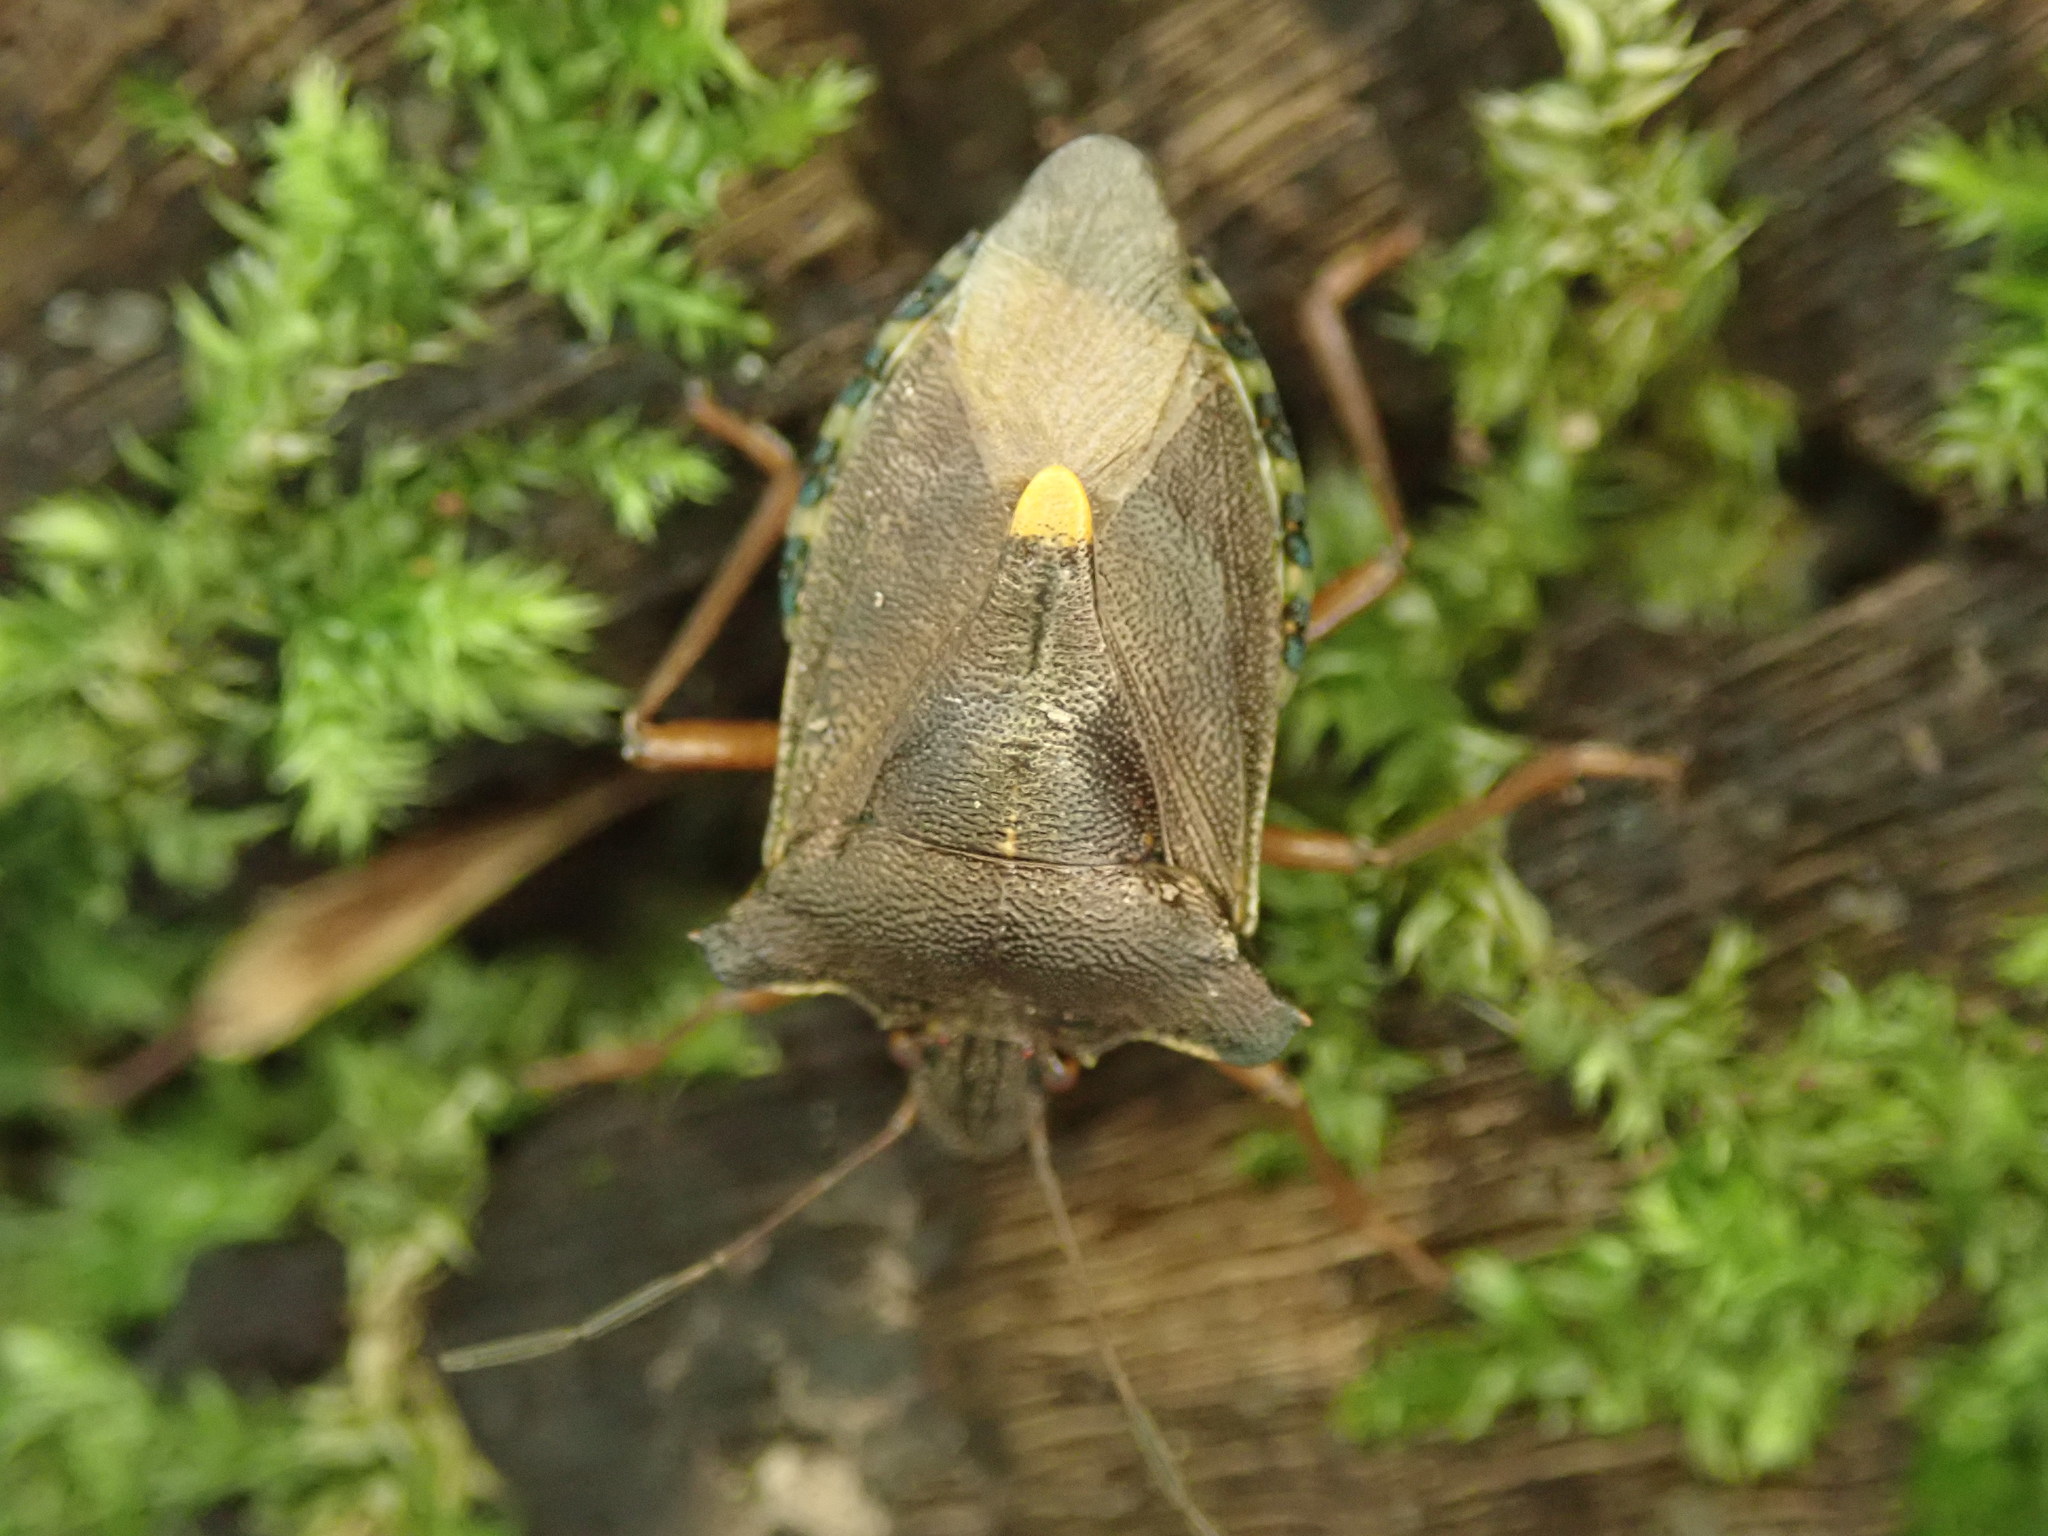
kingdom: Animalia
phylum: Arthropoda
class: Insecta
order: Hemiptera
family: Pentatomidae
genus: Pentatoma
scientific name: Pentatoma rufipes
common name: Forest bug
